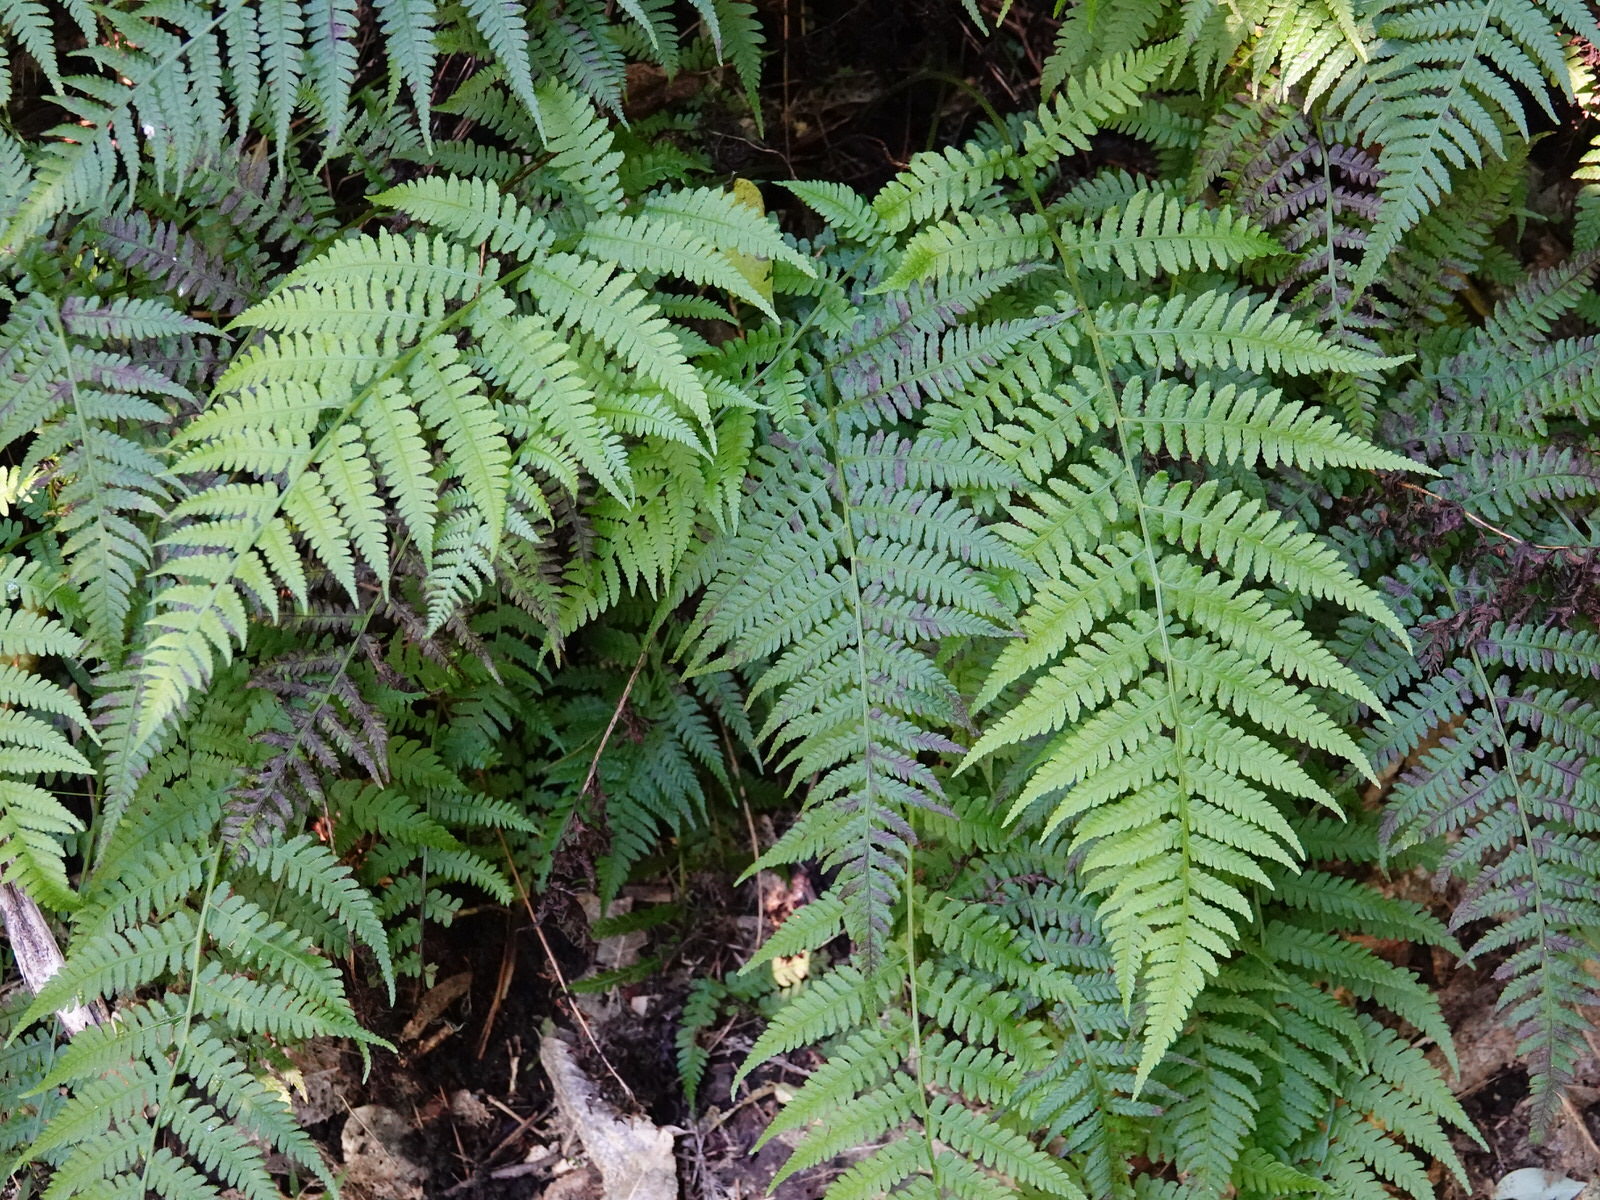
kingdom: Plantae
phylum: Tracheophyta
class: Polypodiopsida
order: Polypodiales
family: Athyriaceae
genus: Diplazium
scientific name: Diplazium congruum
